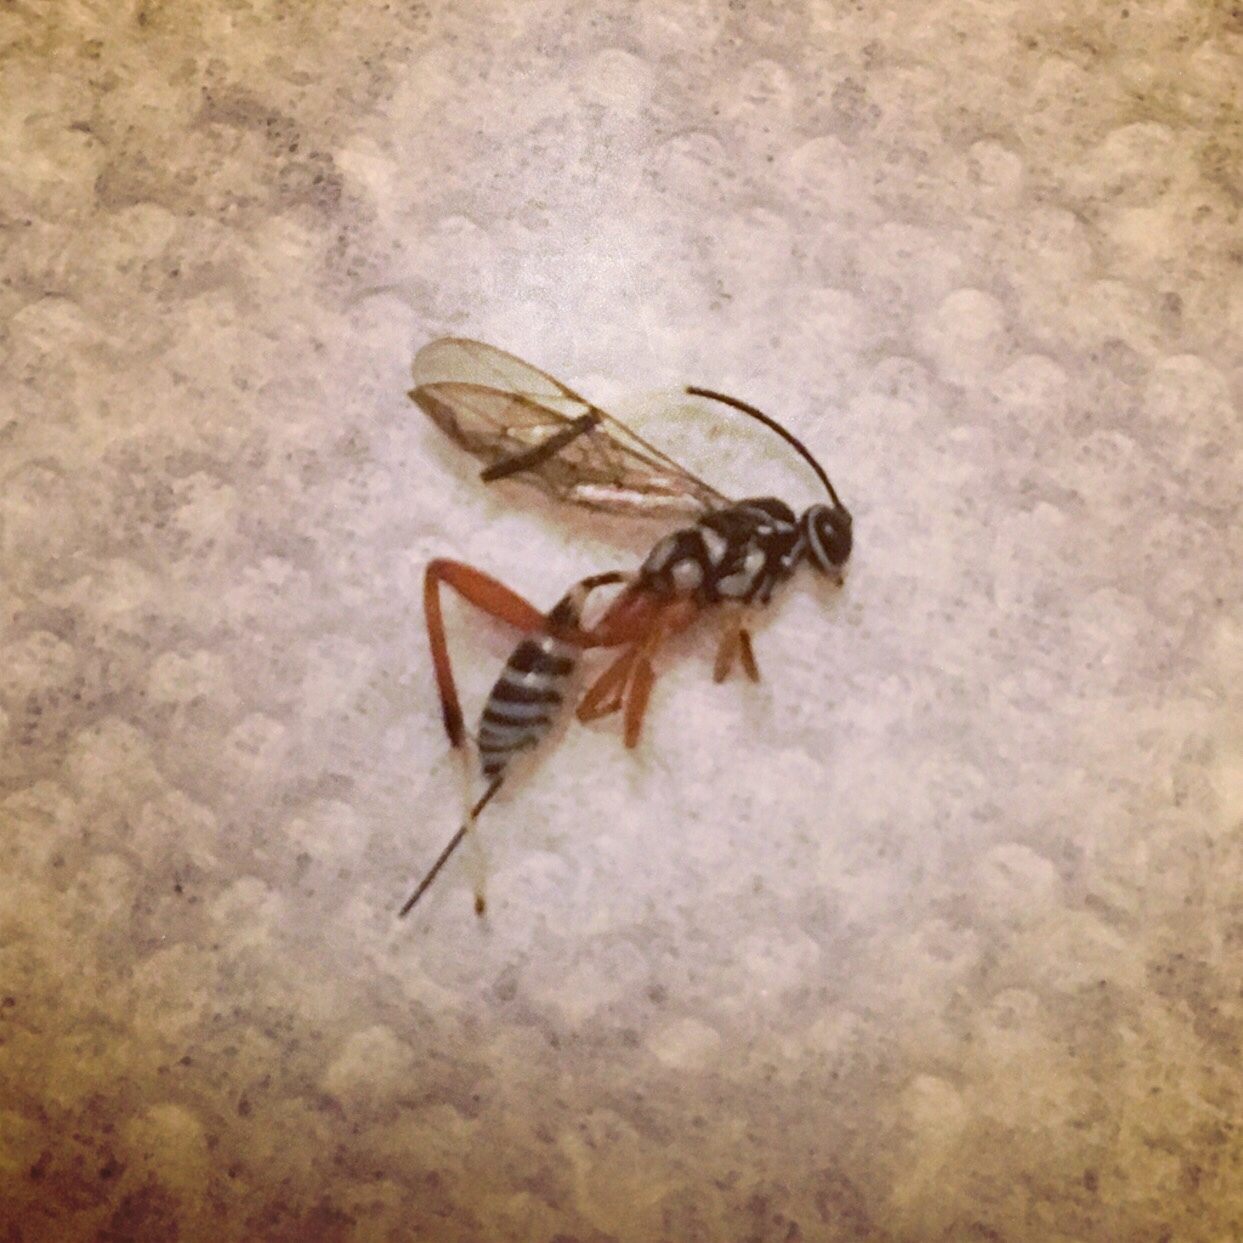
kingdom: Animalia
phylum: Arthropoda
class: Insecta
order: Hymenoptera
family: Ichneumonidae
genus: Messatoporus
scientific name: Messatoporus discoidalis
